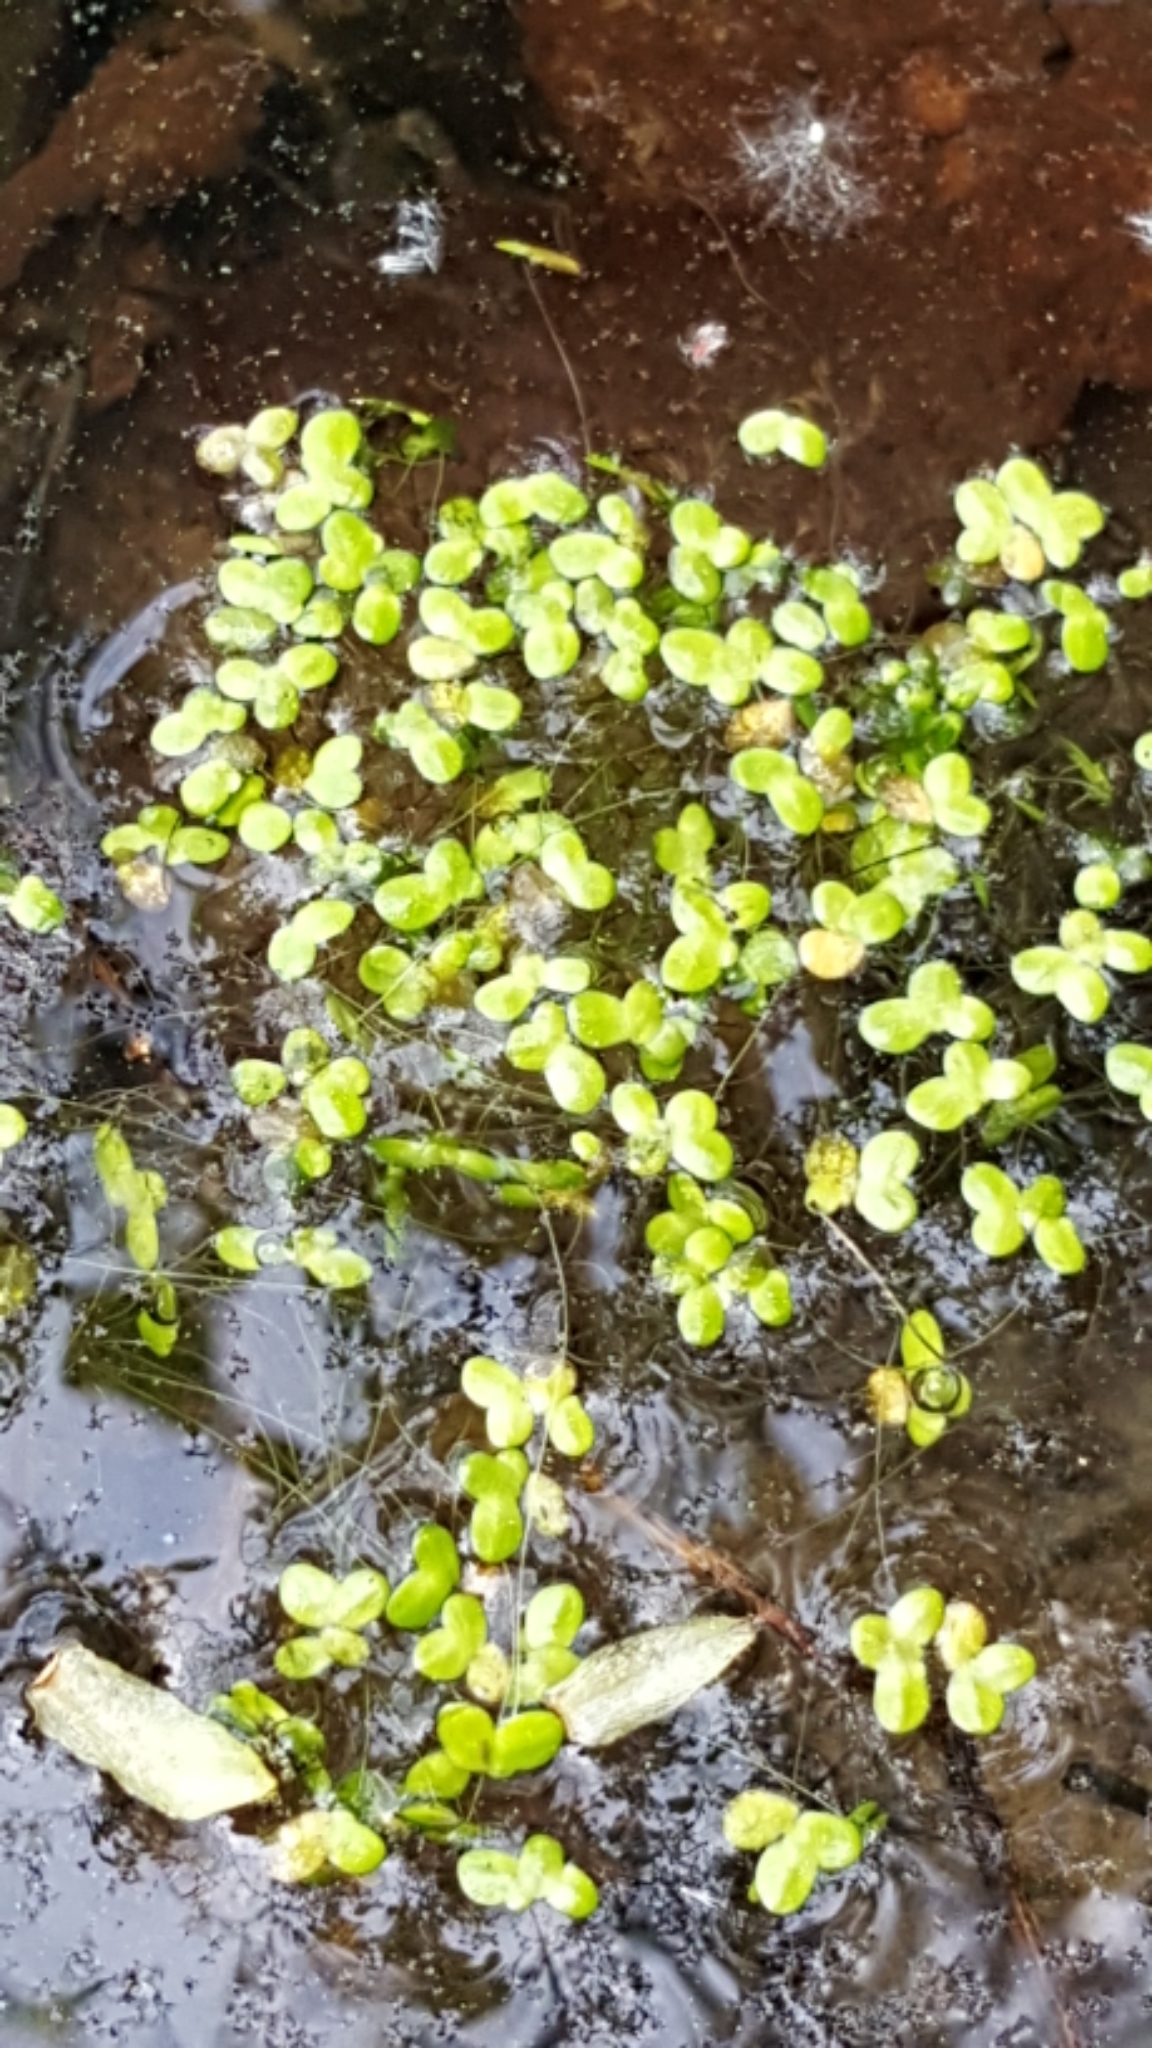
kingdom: Plantae
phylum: Tracheophyta
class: Liliopsida
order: Alismatales
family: Araceae
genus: Lemna
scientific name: Lemna minor
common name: Common duckweed
